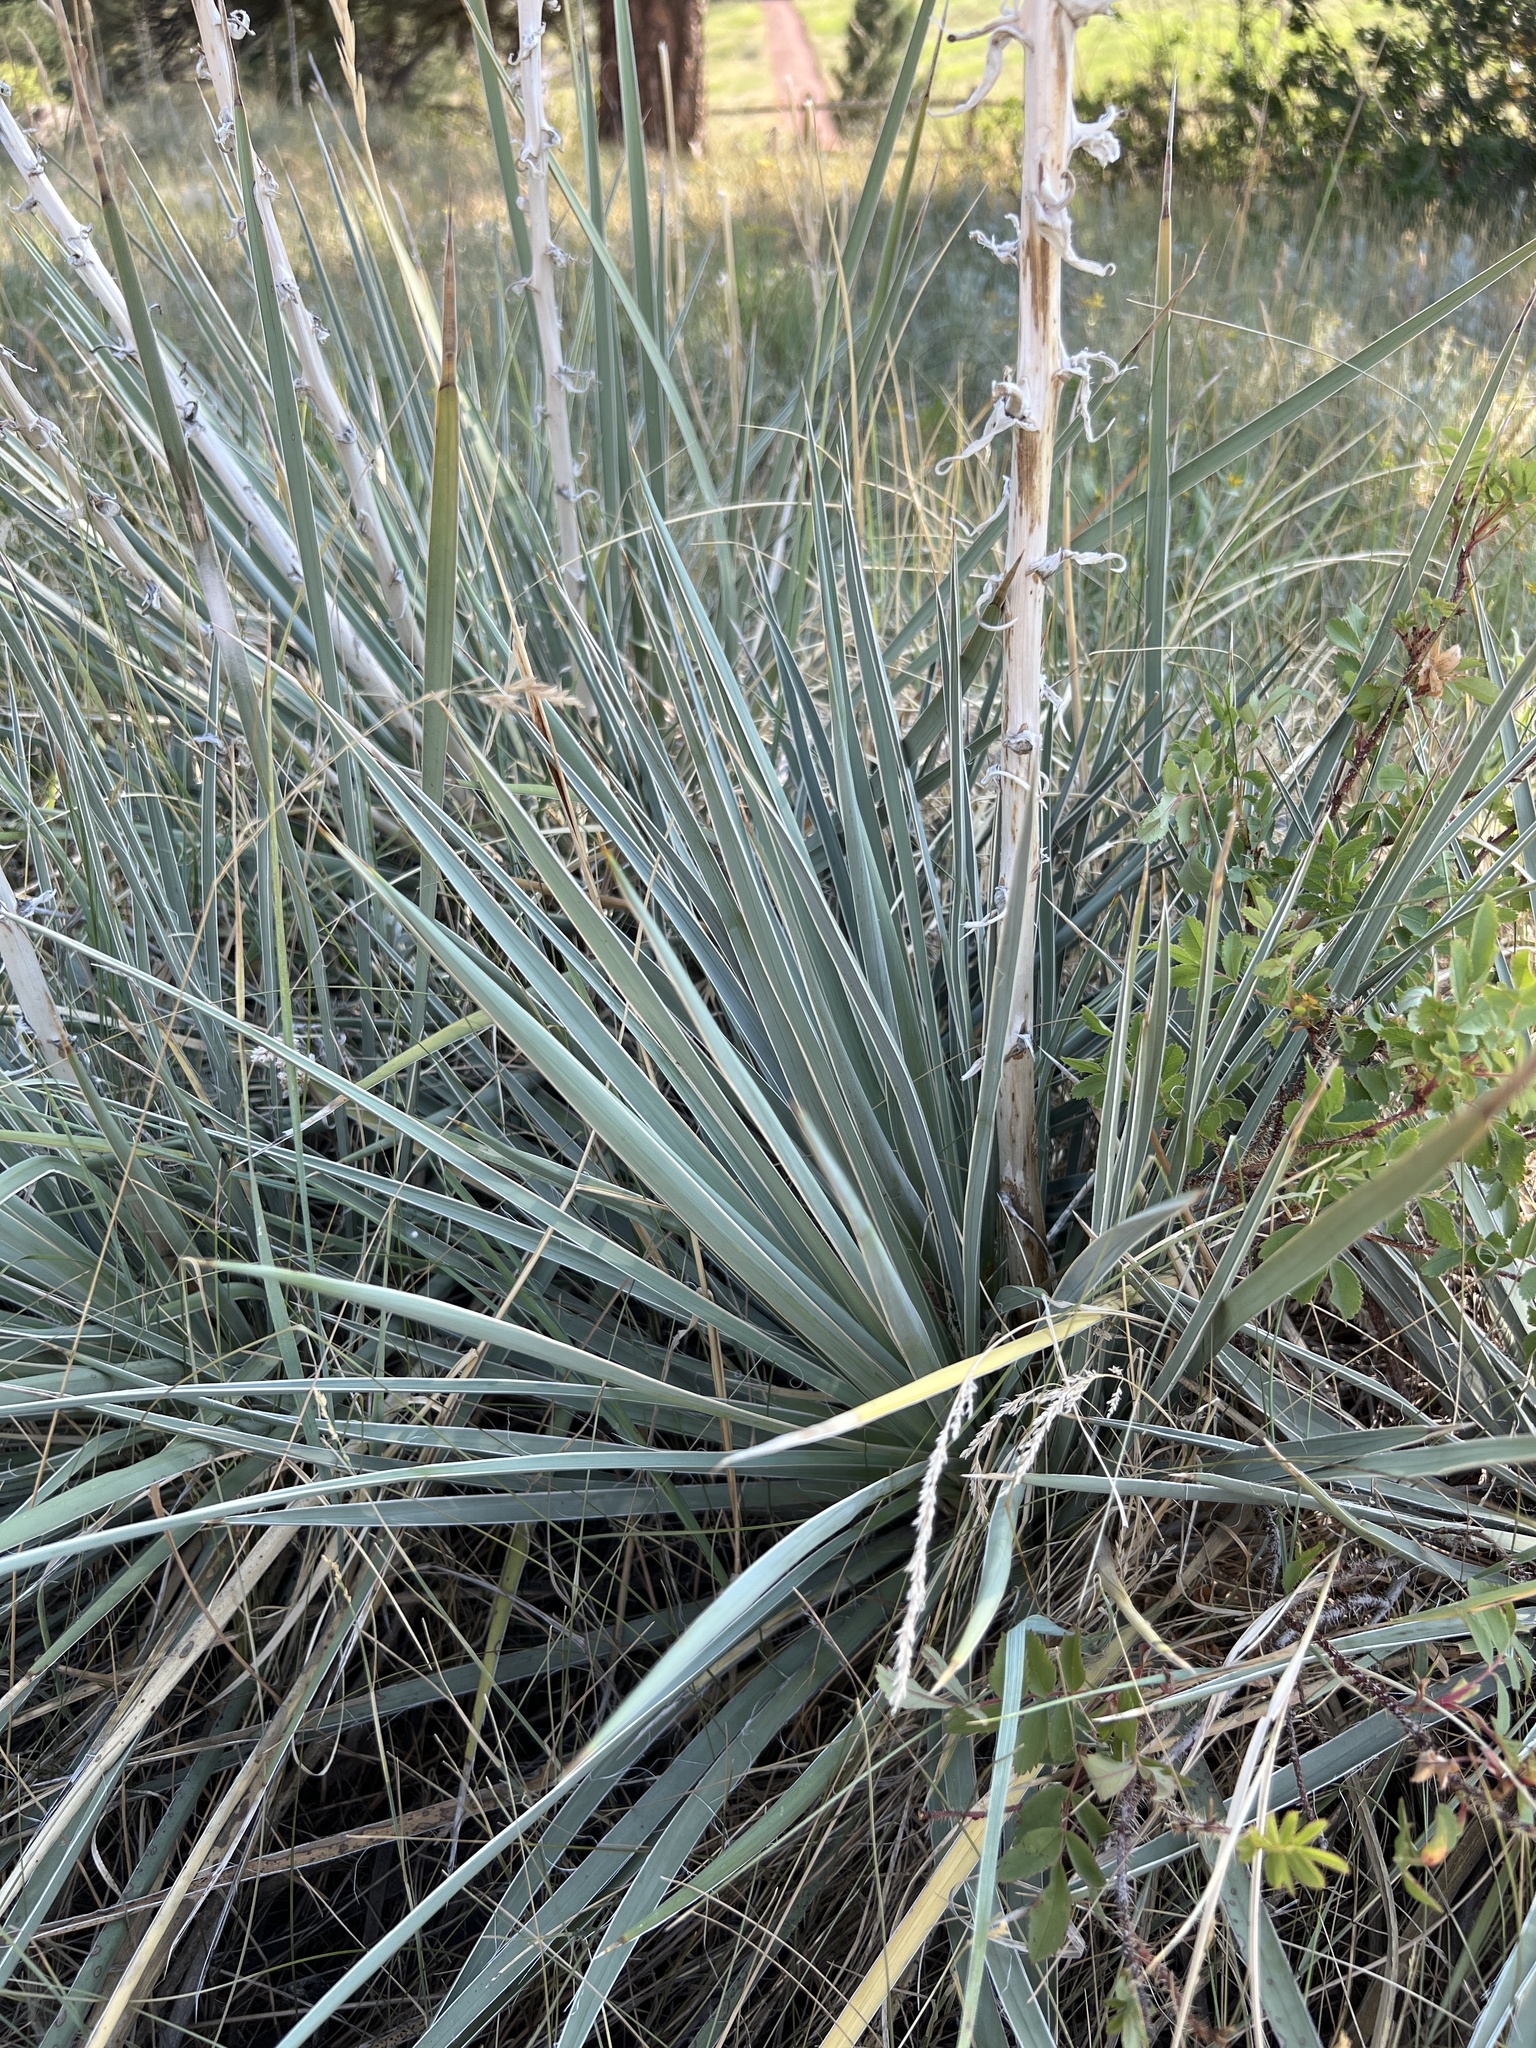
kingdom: Plantae
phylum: Tracheophyta
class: Liliopsida
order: Asparagales
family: Asparagaceae
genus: Yucca
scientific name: Yucca glauca
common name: Great plains yucca
